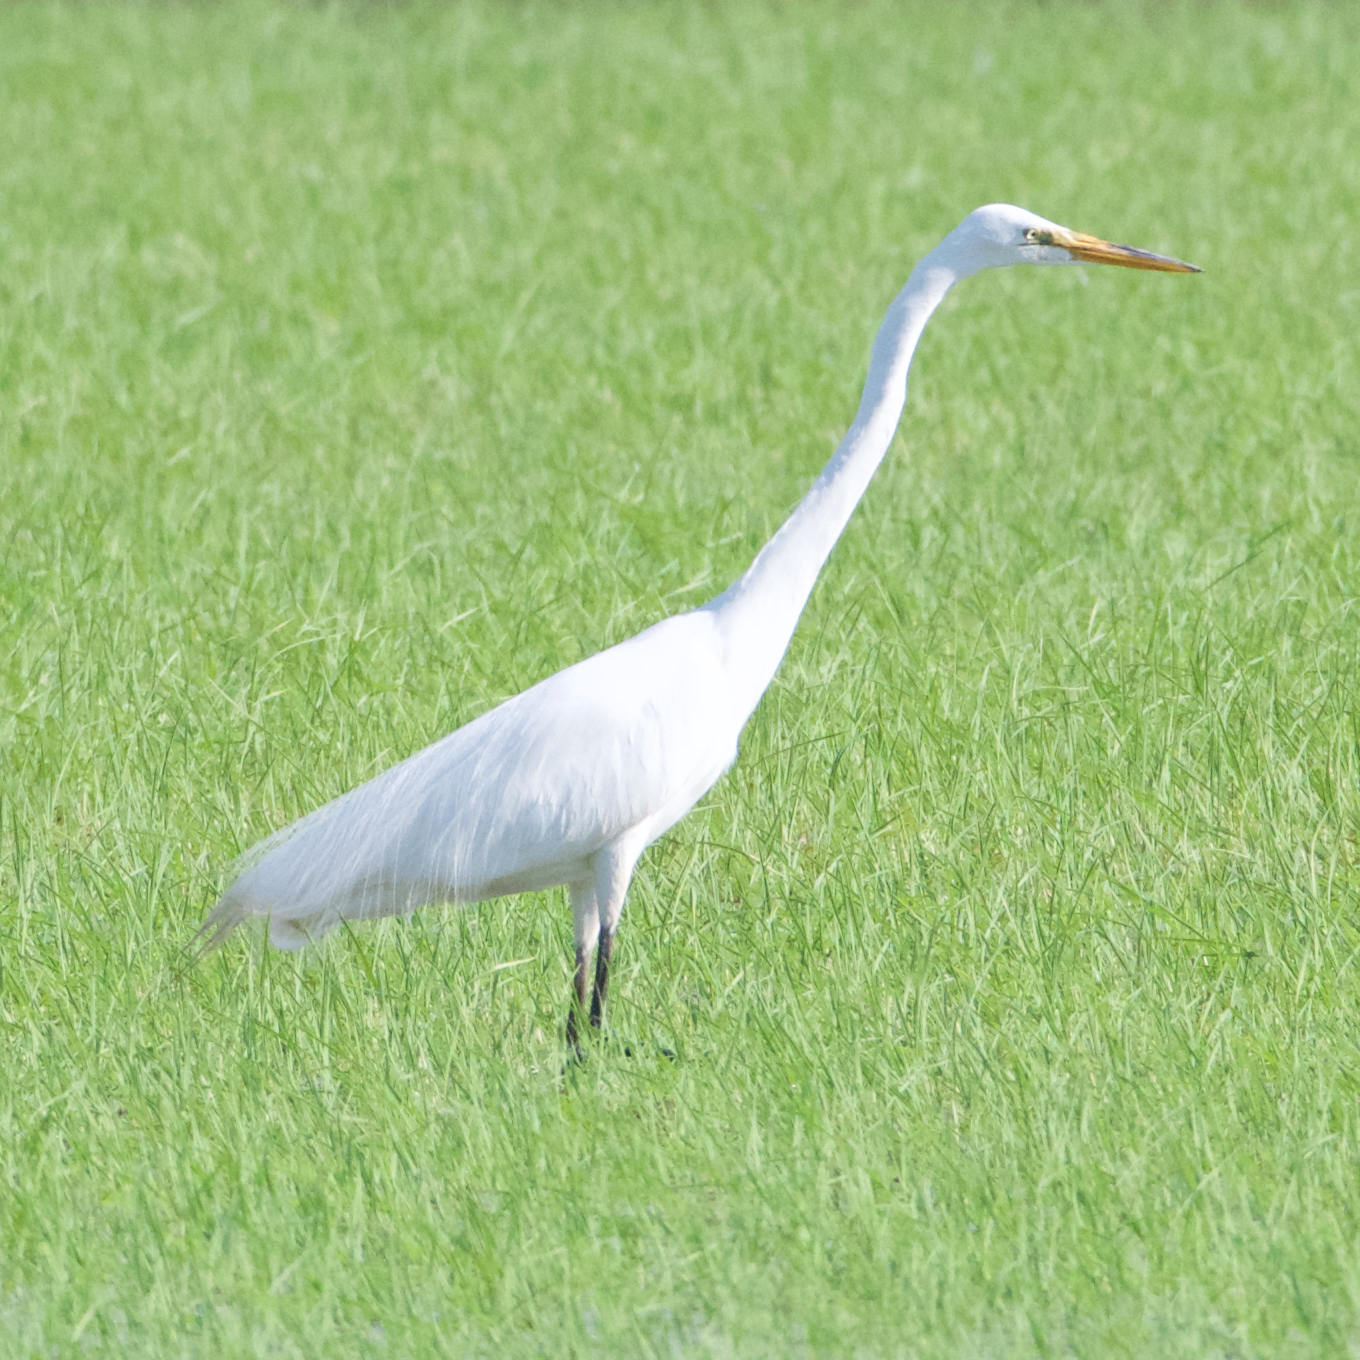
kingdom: Animalia
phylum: Chordata
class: Aves
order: Pelecaniformes
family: Ardeidae
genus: Ardea
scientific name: Ardea alba
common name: Great egret
